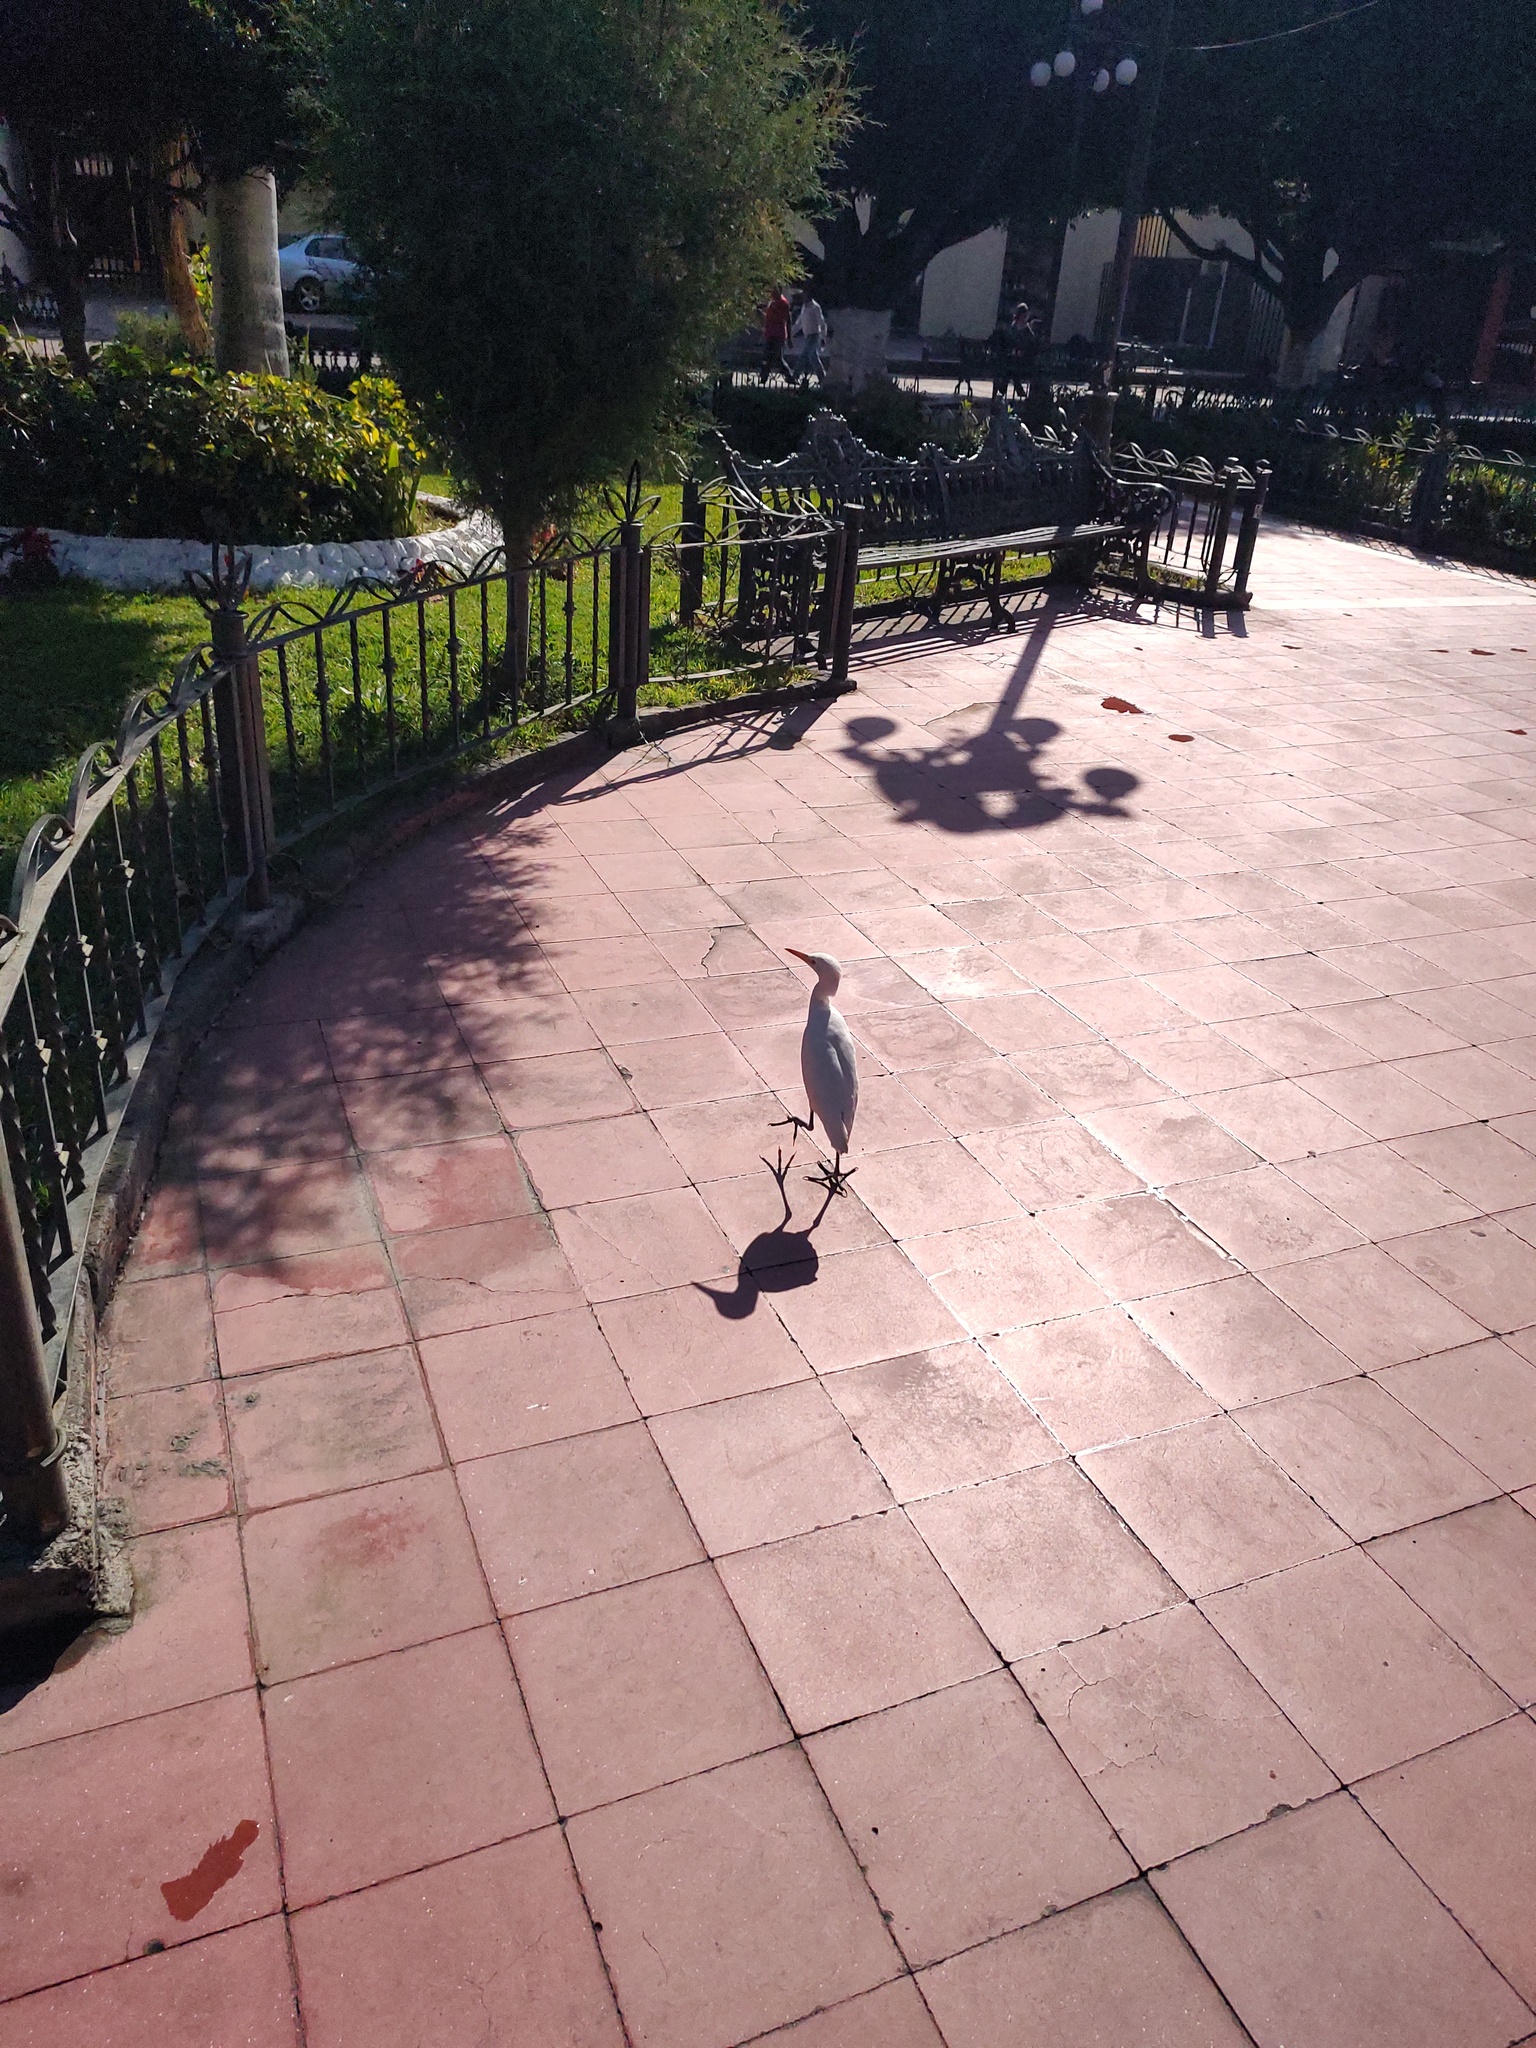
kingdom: Animalia
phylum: Chordata
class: Aves
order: Pelecaniformes
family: Ardeidae
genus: Bubulcus
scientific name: Bubulcus ibis
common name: Cattle egret
